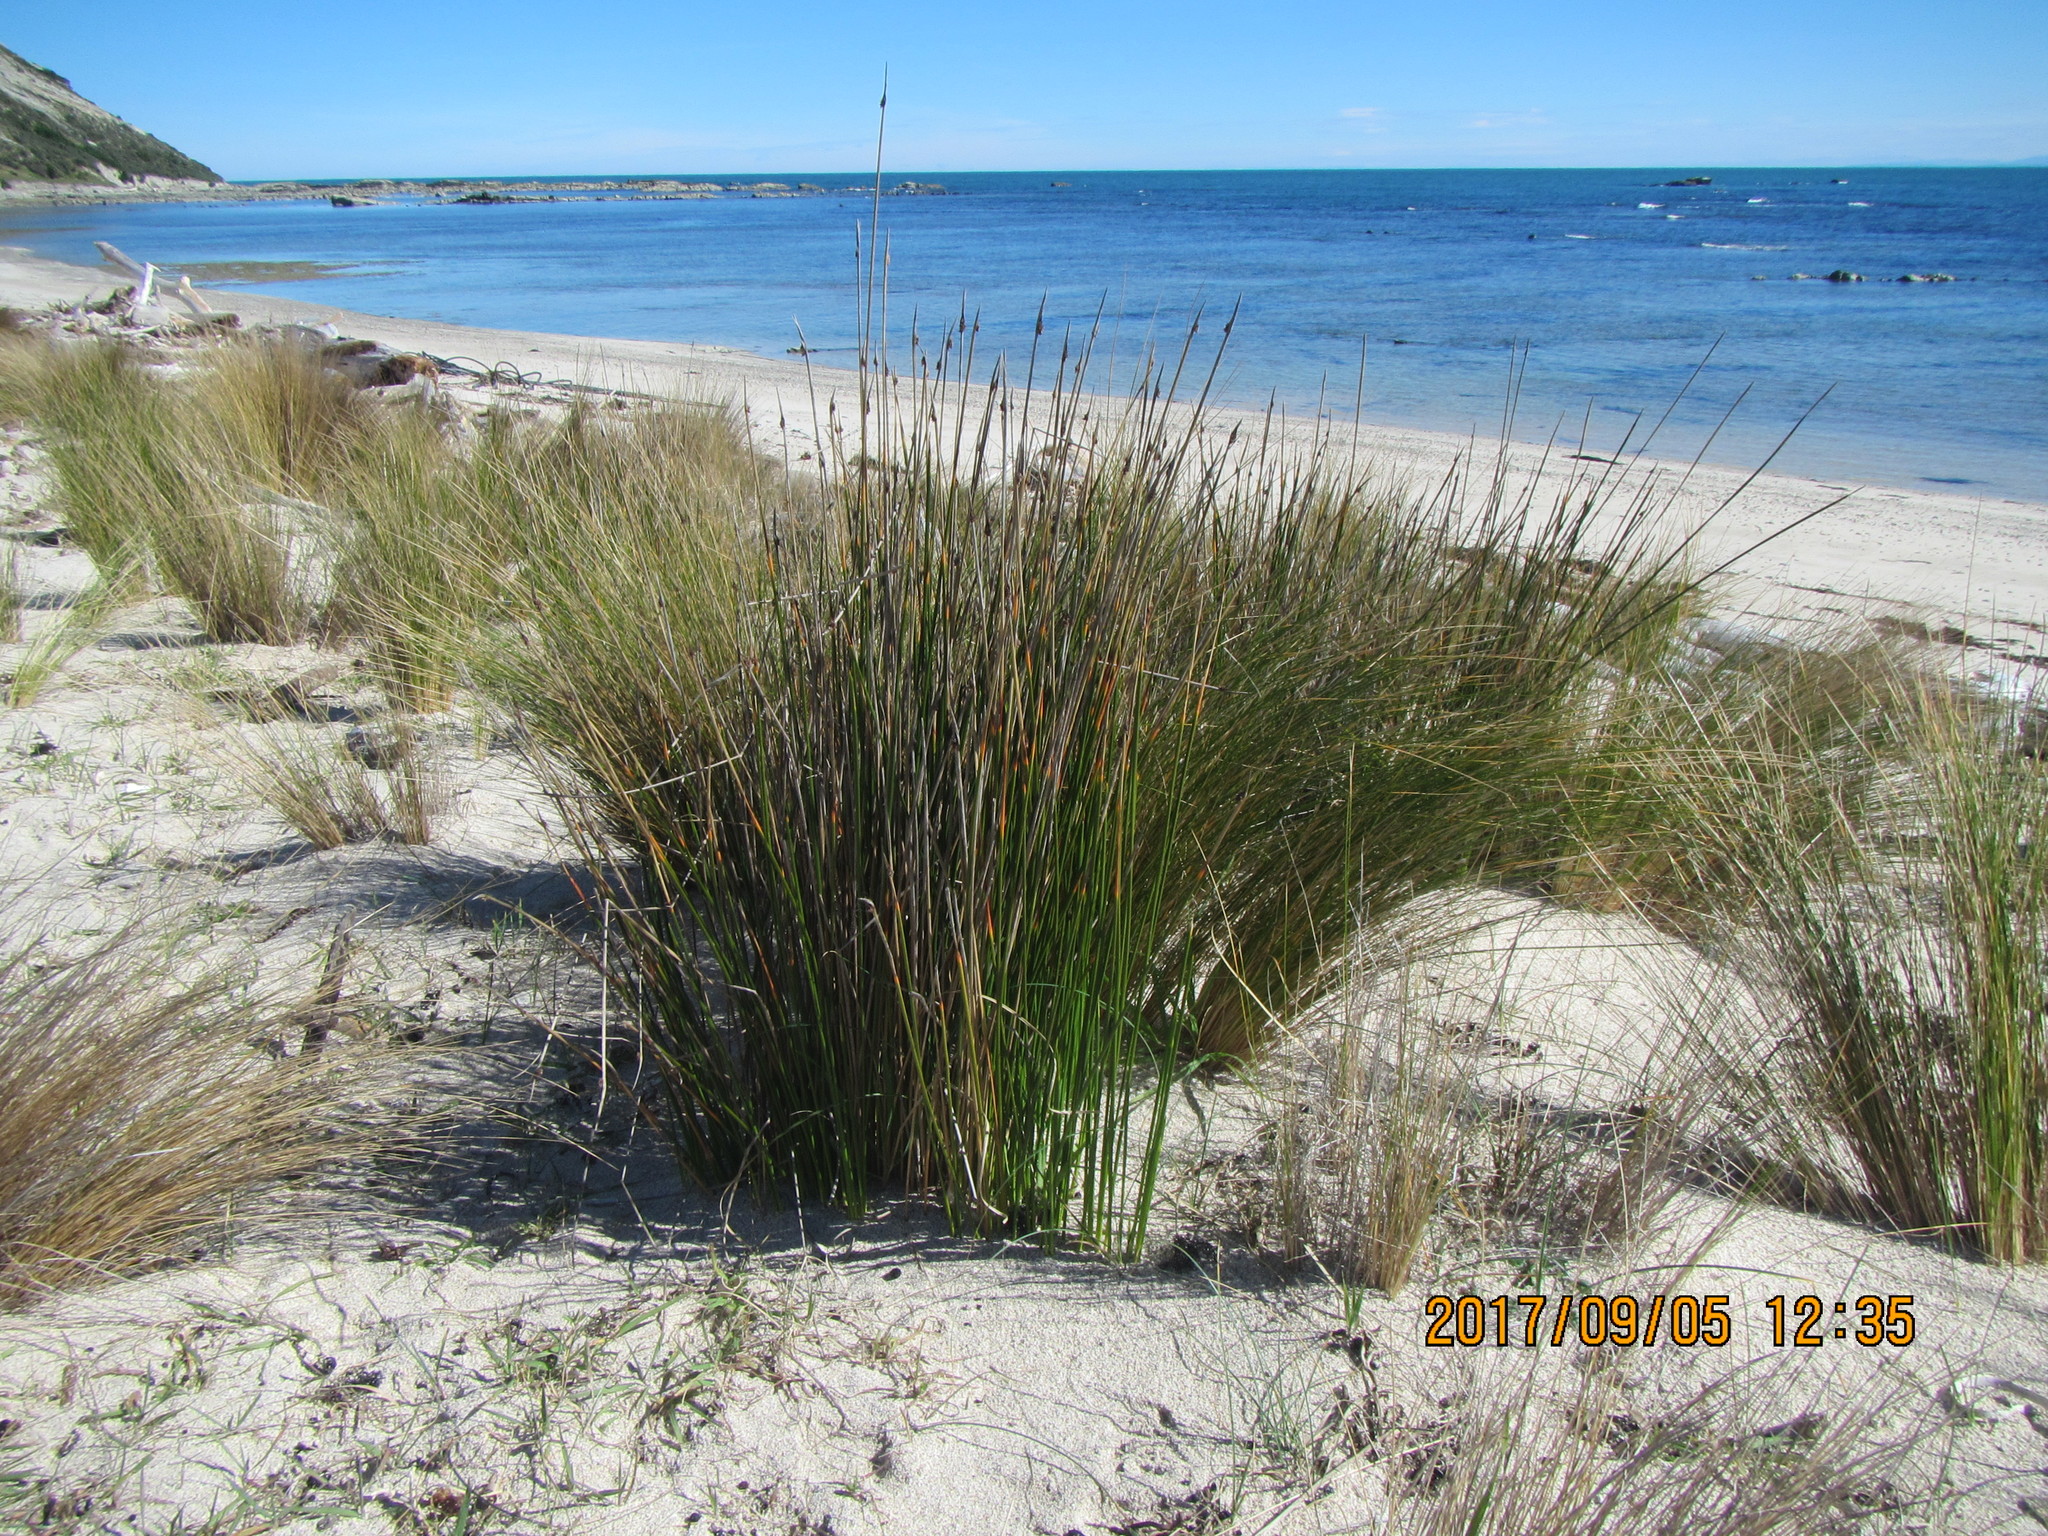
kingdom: Plantae
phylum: Tracheophyta
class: Liliopsida
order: Poales
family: Cyperaceae
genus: Ficinia
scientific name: Ficinia nodosa
